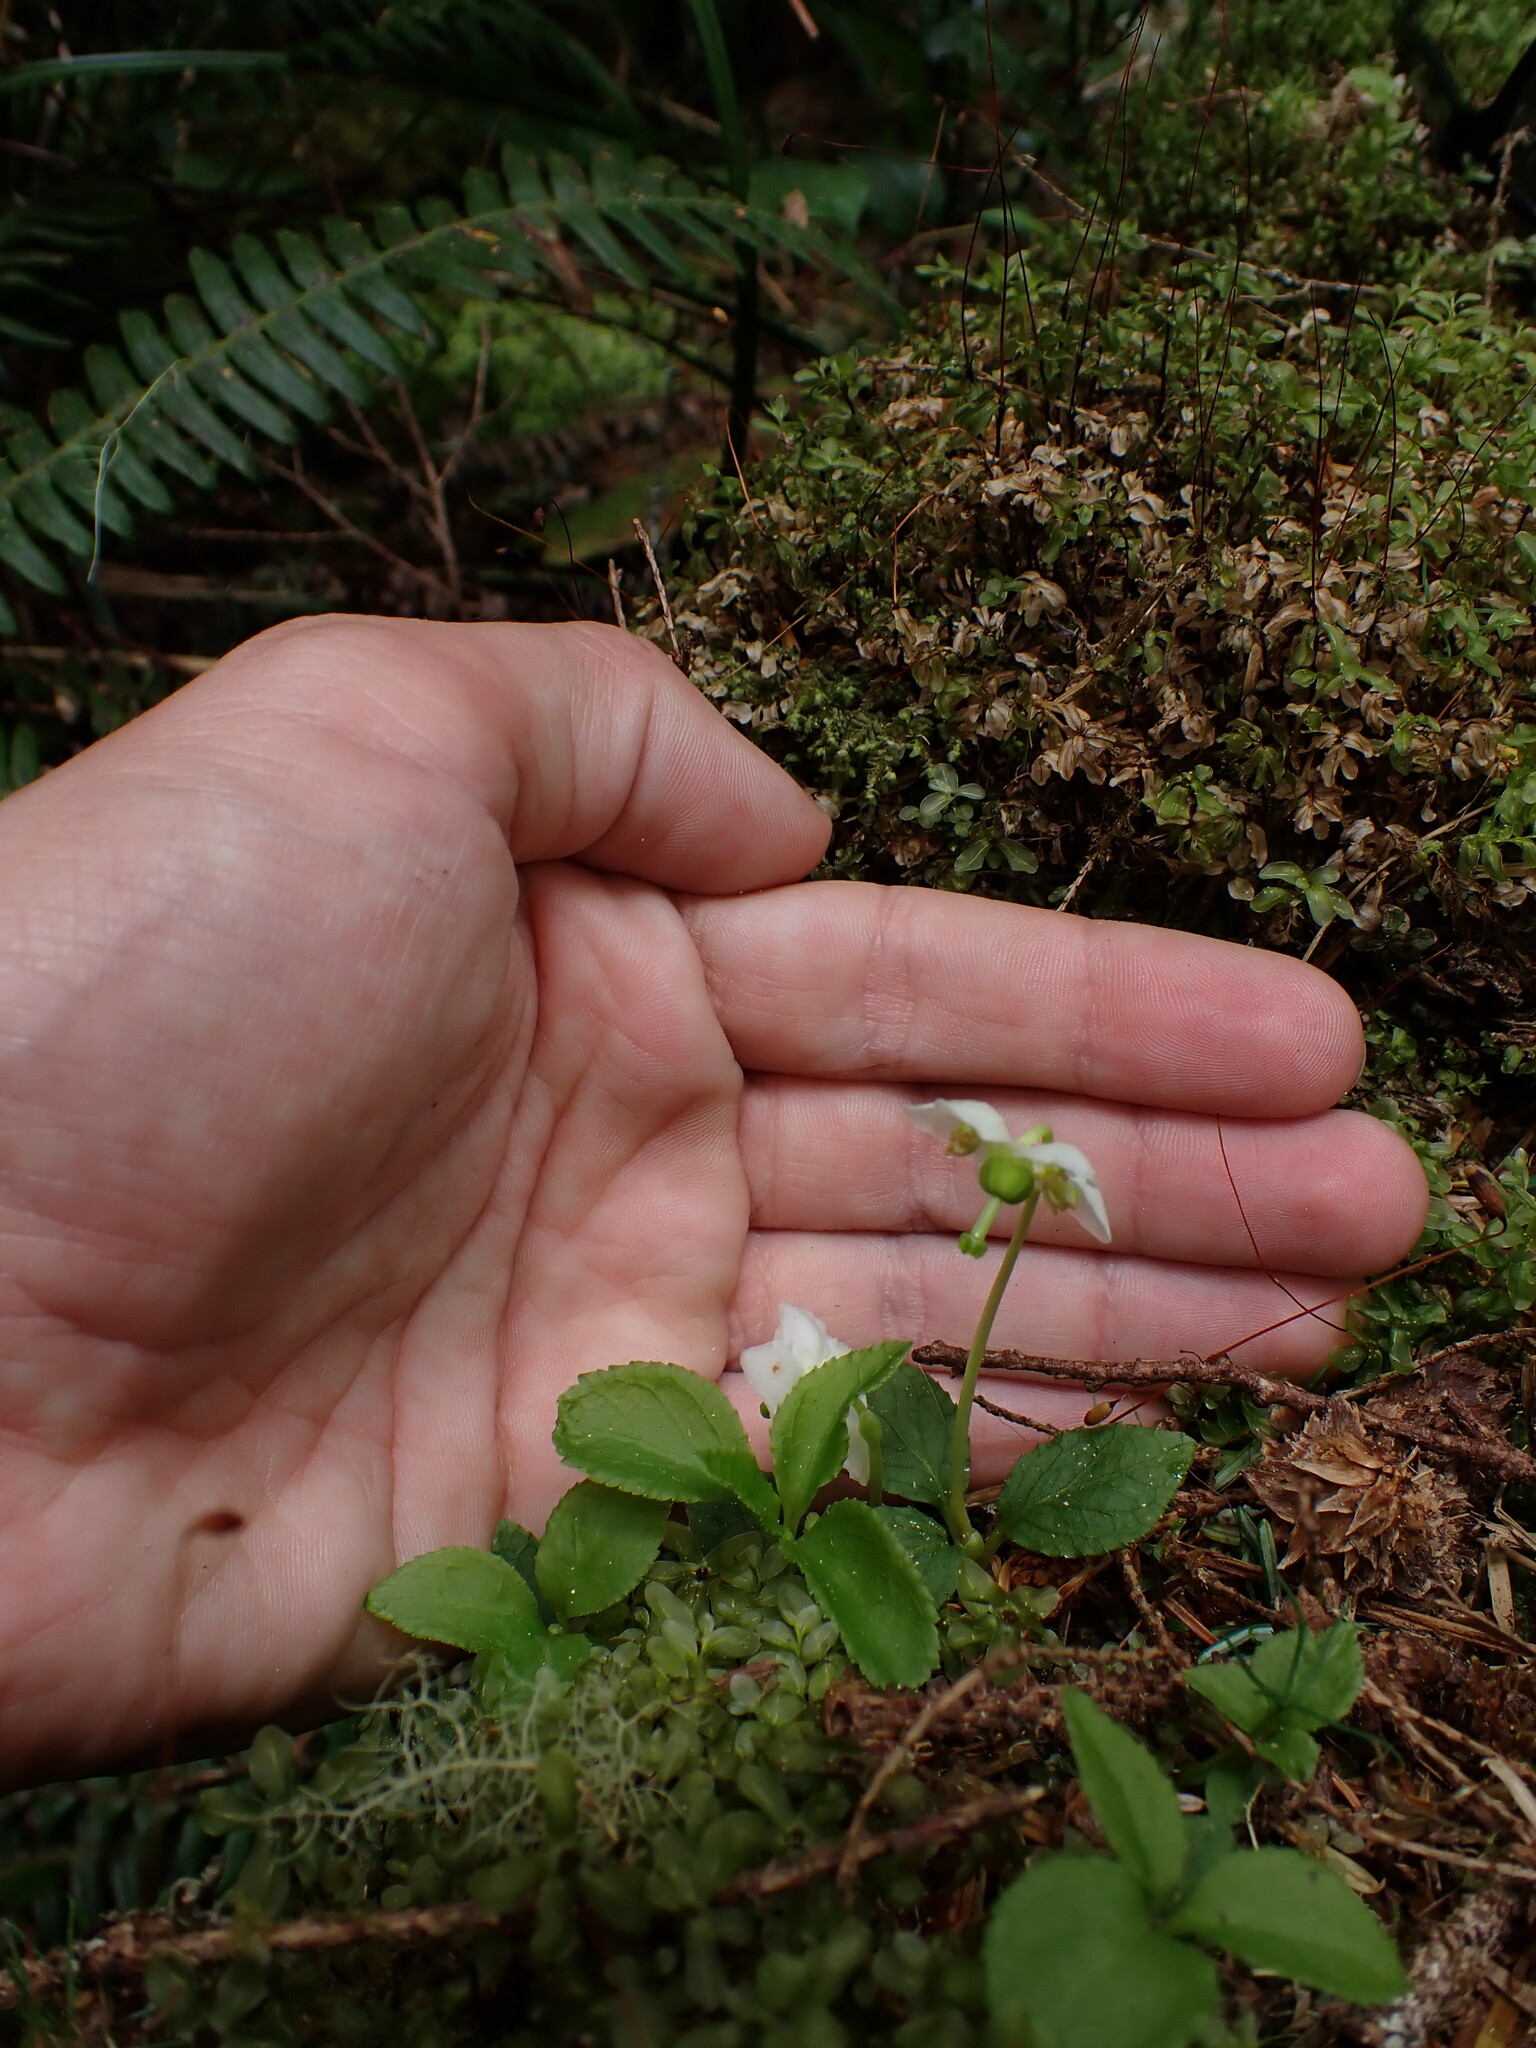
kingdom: Plantae
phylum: Tracheophyta
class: Magnoliopsida
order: Ericales
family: Ericaceae
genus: Moneses
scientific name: Moneses uniflora
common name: One-flowered wintergreen
